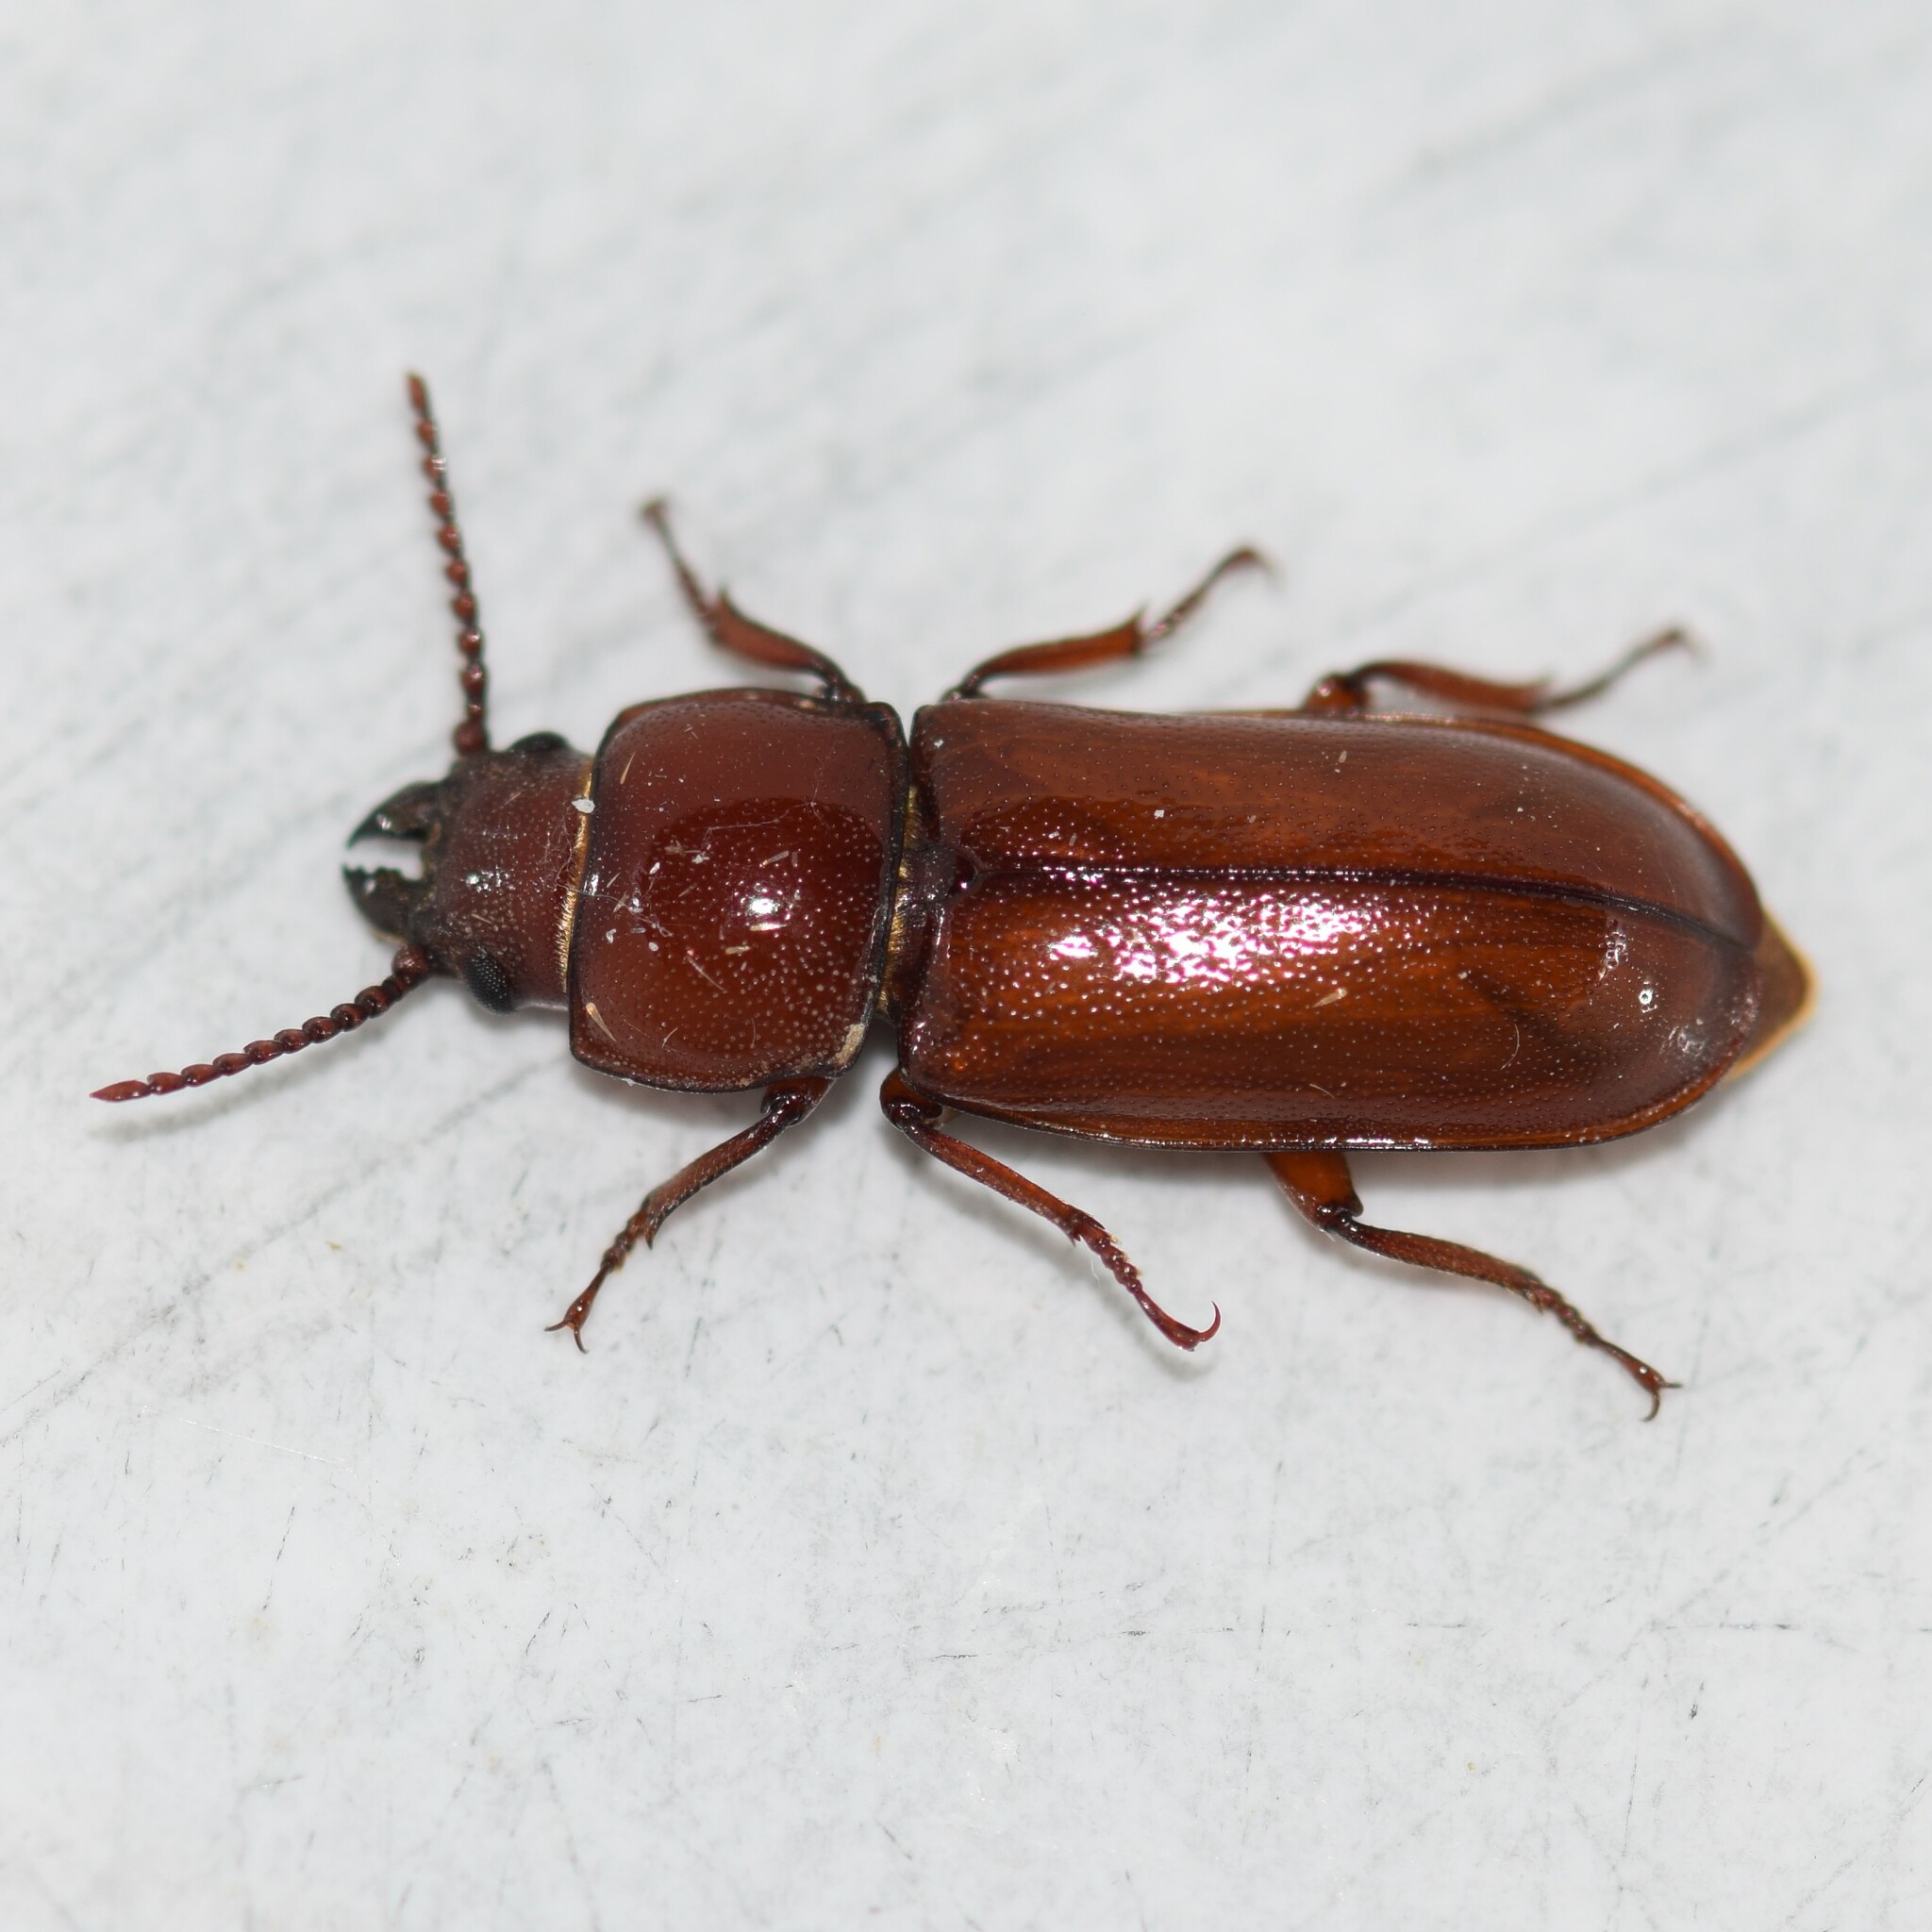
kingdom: Animalia
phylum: Arthropoda
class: Insecta
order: Coleoptera
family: Cerambycidae
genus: Neandra
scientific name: Neandra brunnea
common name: Pole borer
